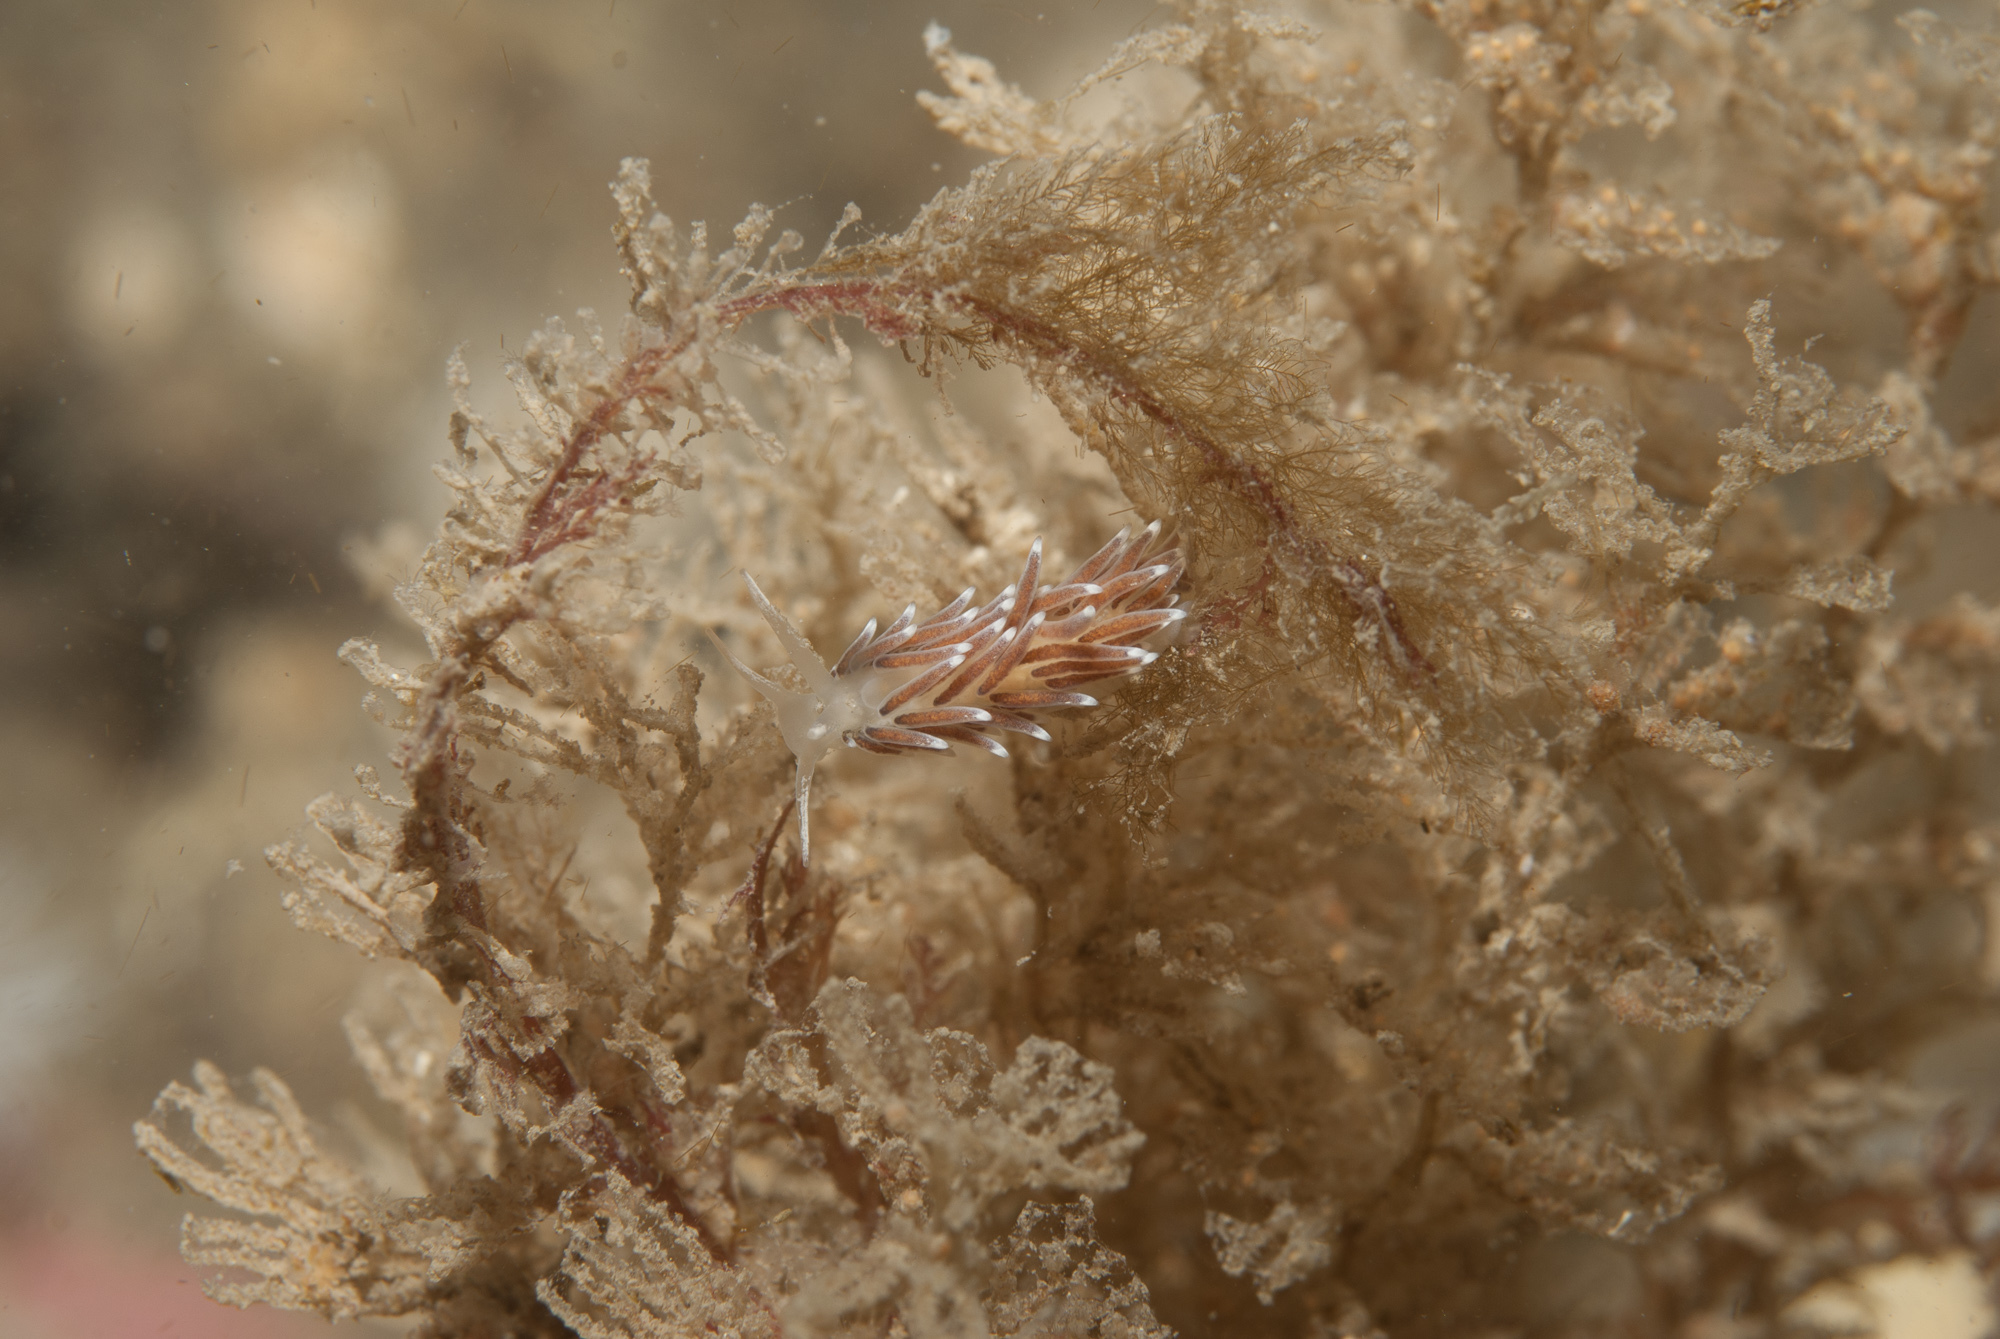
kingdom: Animalia
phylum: Mollusca
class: Gastropoda
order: Nudibranchia
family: Cuthonellidae
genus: Cuthonella
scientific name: Cuthonella concinna
